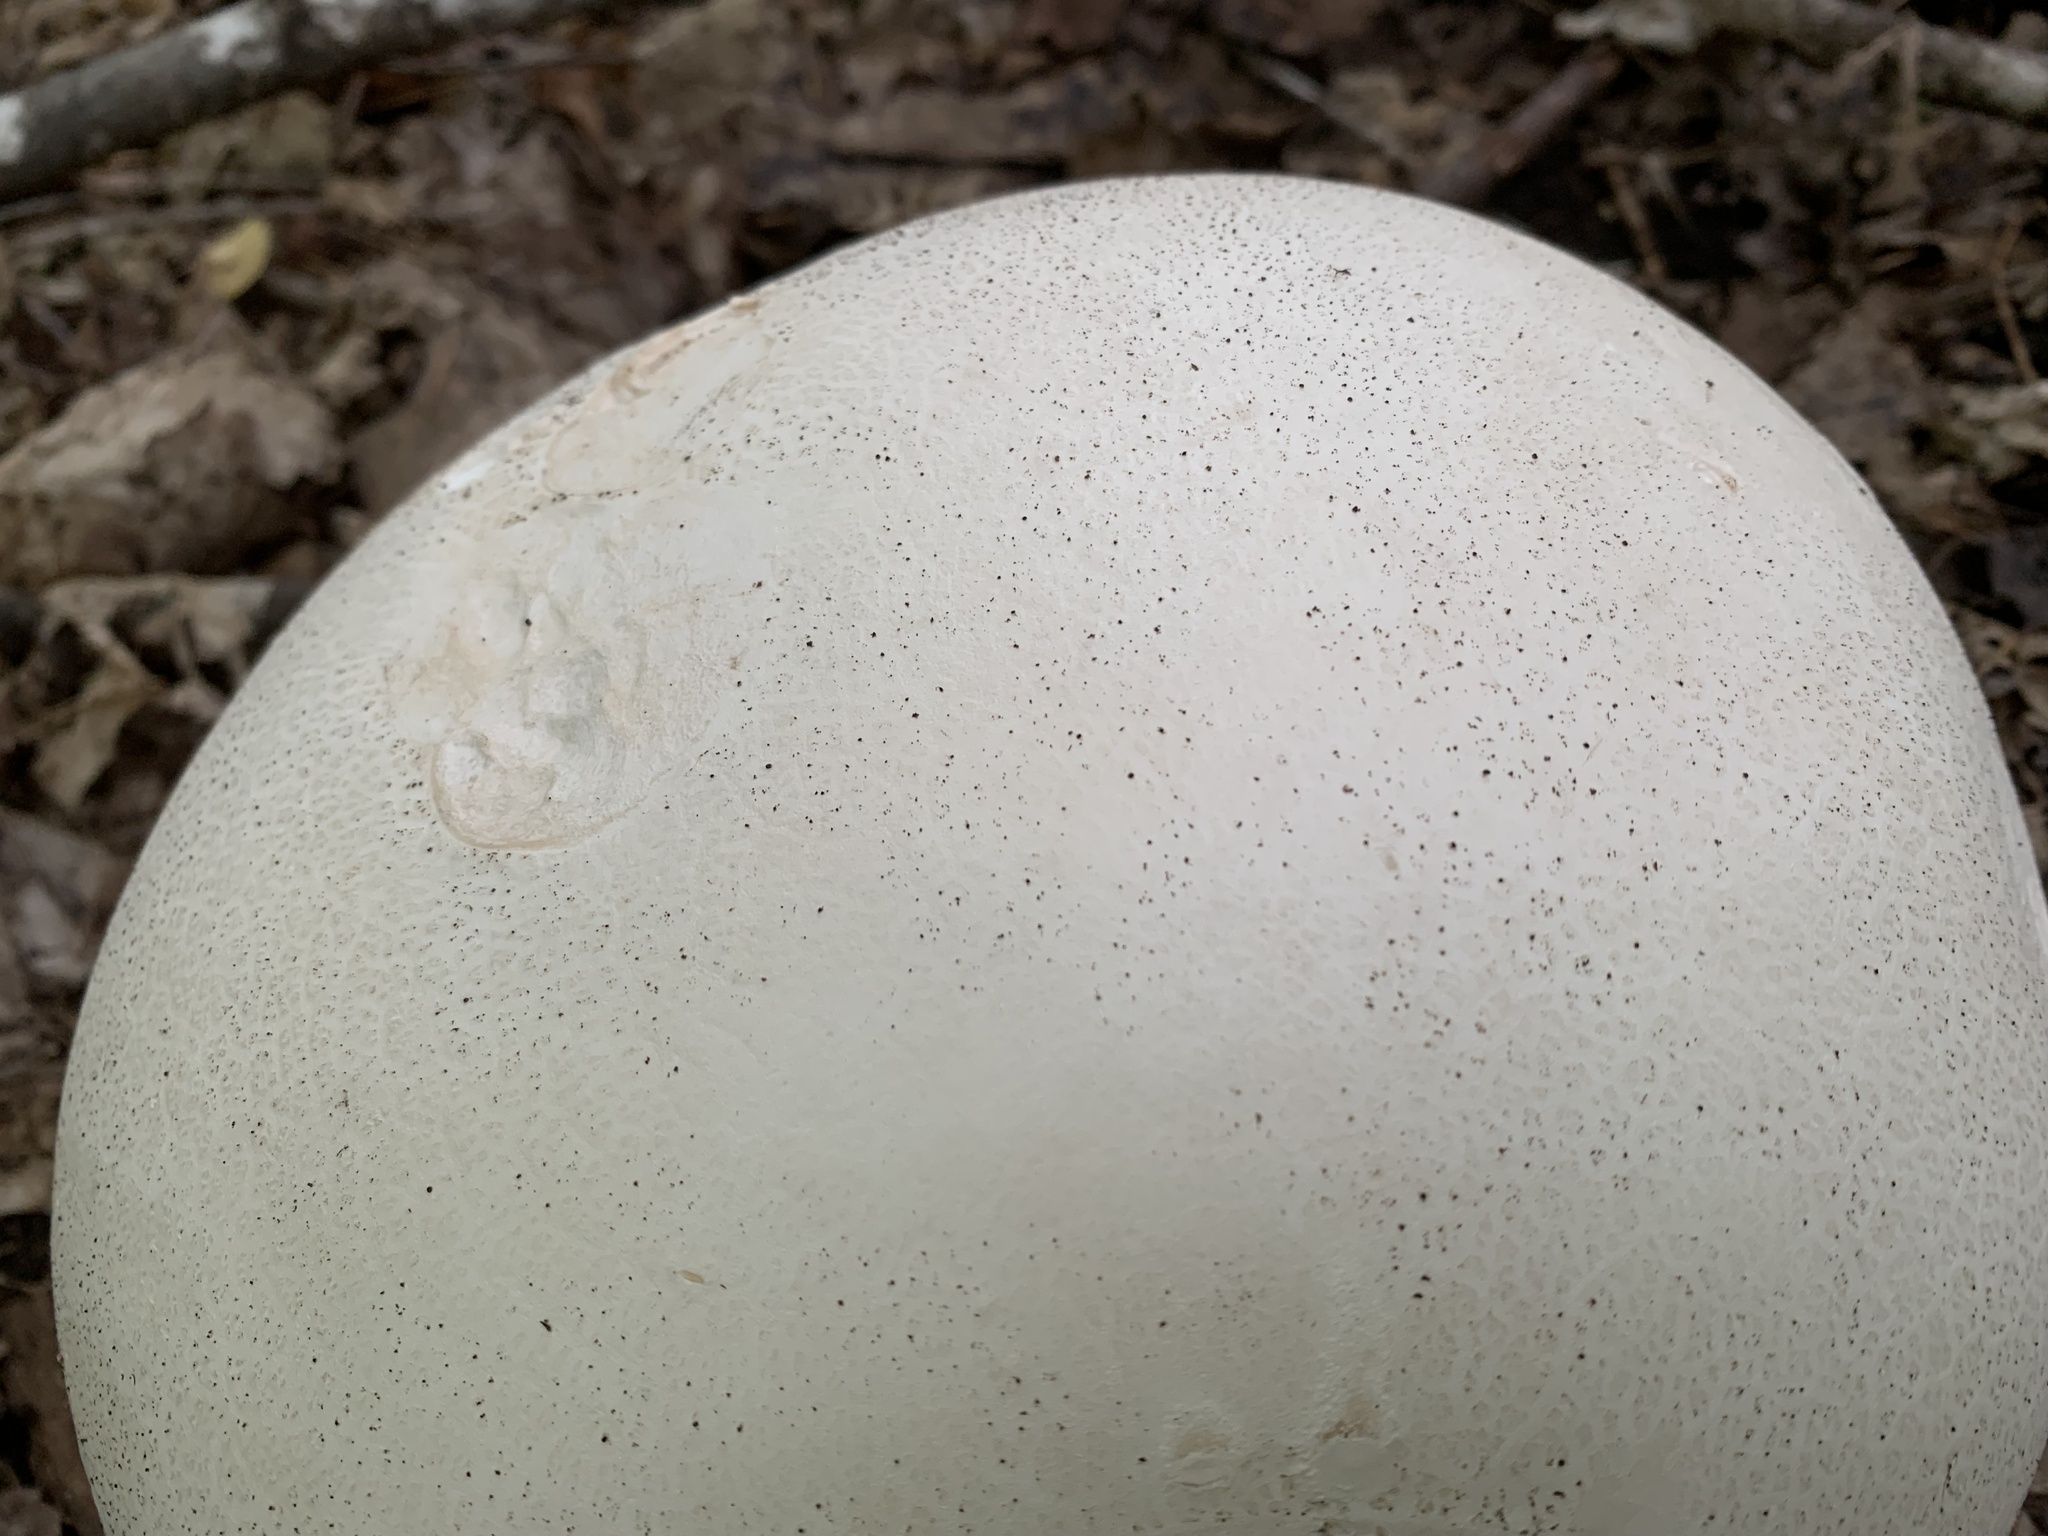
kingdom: Fungi
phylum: Basidiomycota
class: Agaricomycetes
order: Agaricales
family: Lycoperdaceae
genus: Calvatia
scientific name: Calvatia gigantea
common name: Giant puffball
